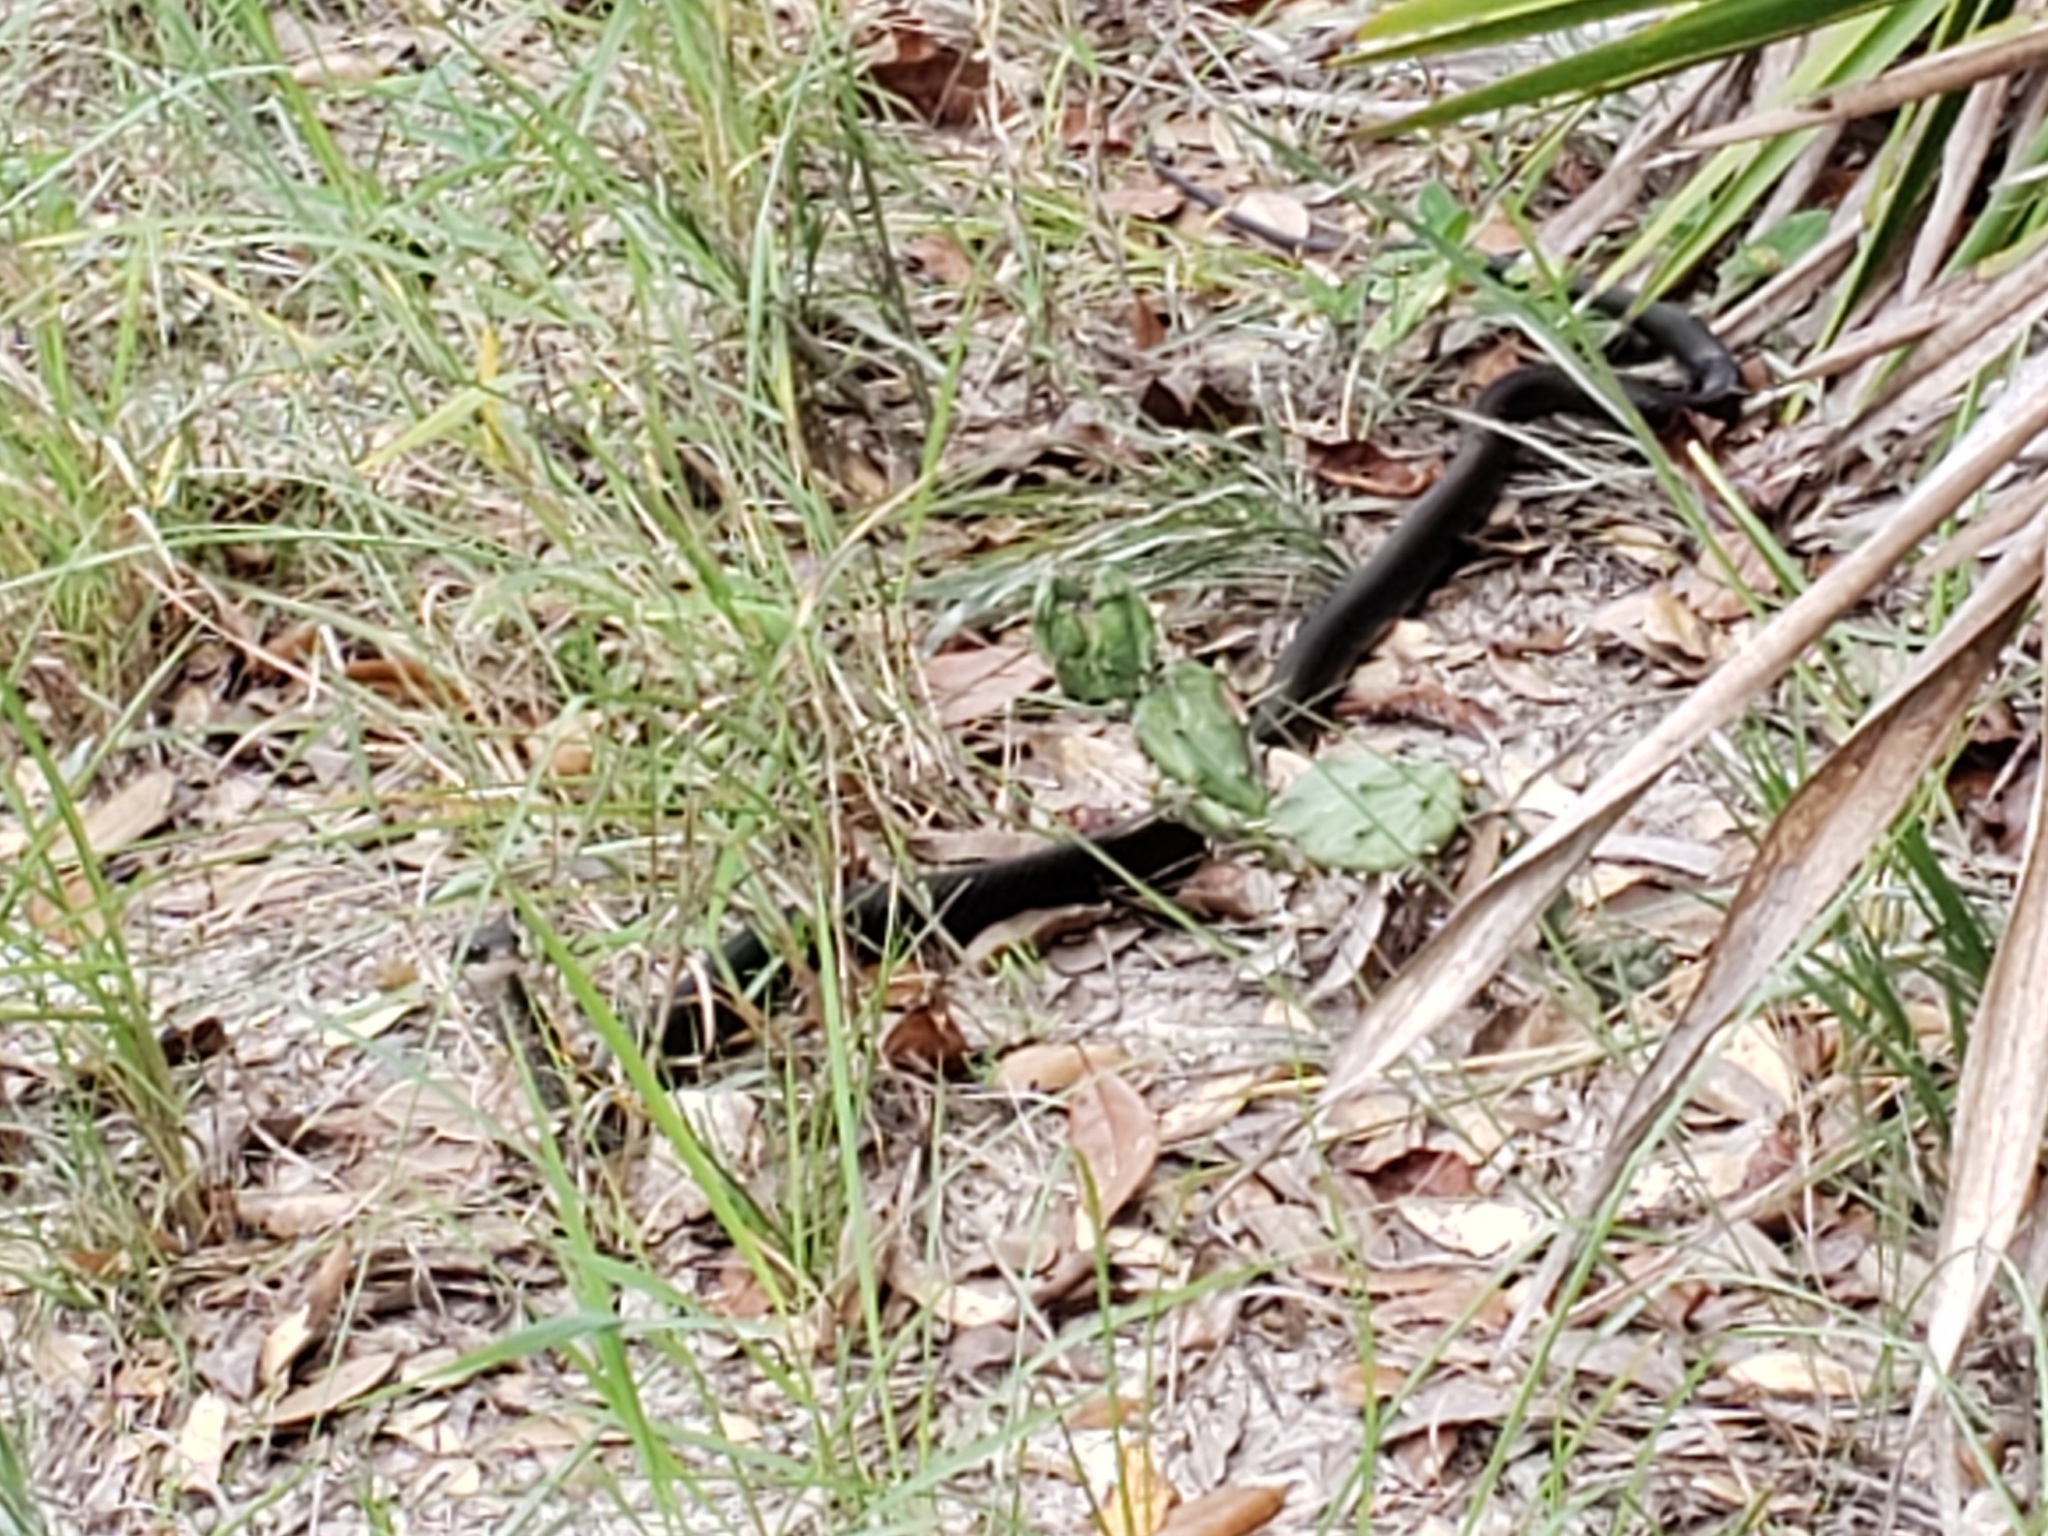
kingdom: Animalia
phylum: Chordata
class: Squamata
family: Colubridae
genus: Coluber
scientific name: Coluber constrictor
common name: Eastern racer
